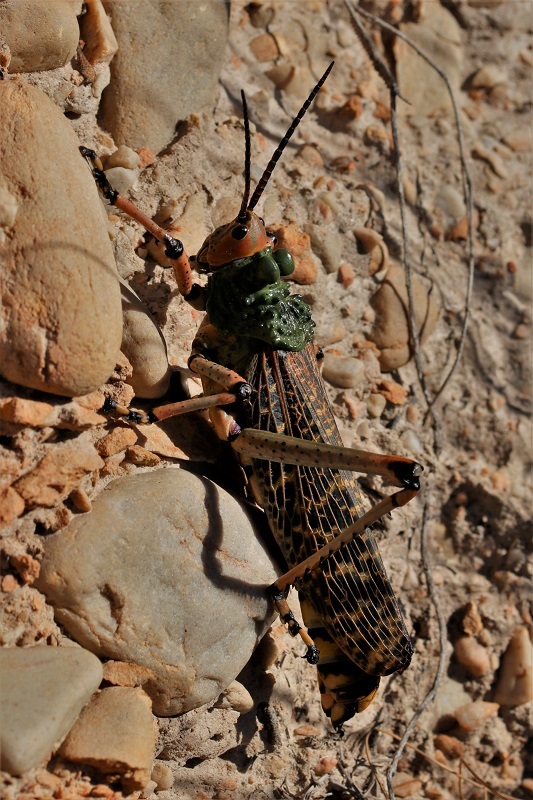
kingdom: Animalia
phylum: Arthropoda
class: Insecta
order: Orthoptera
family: Pyrgomorphidae
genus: Phymateus
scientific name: Phymateus leprosus
